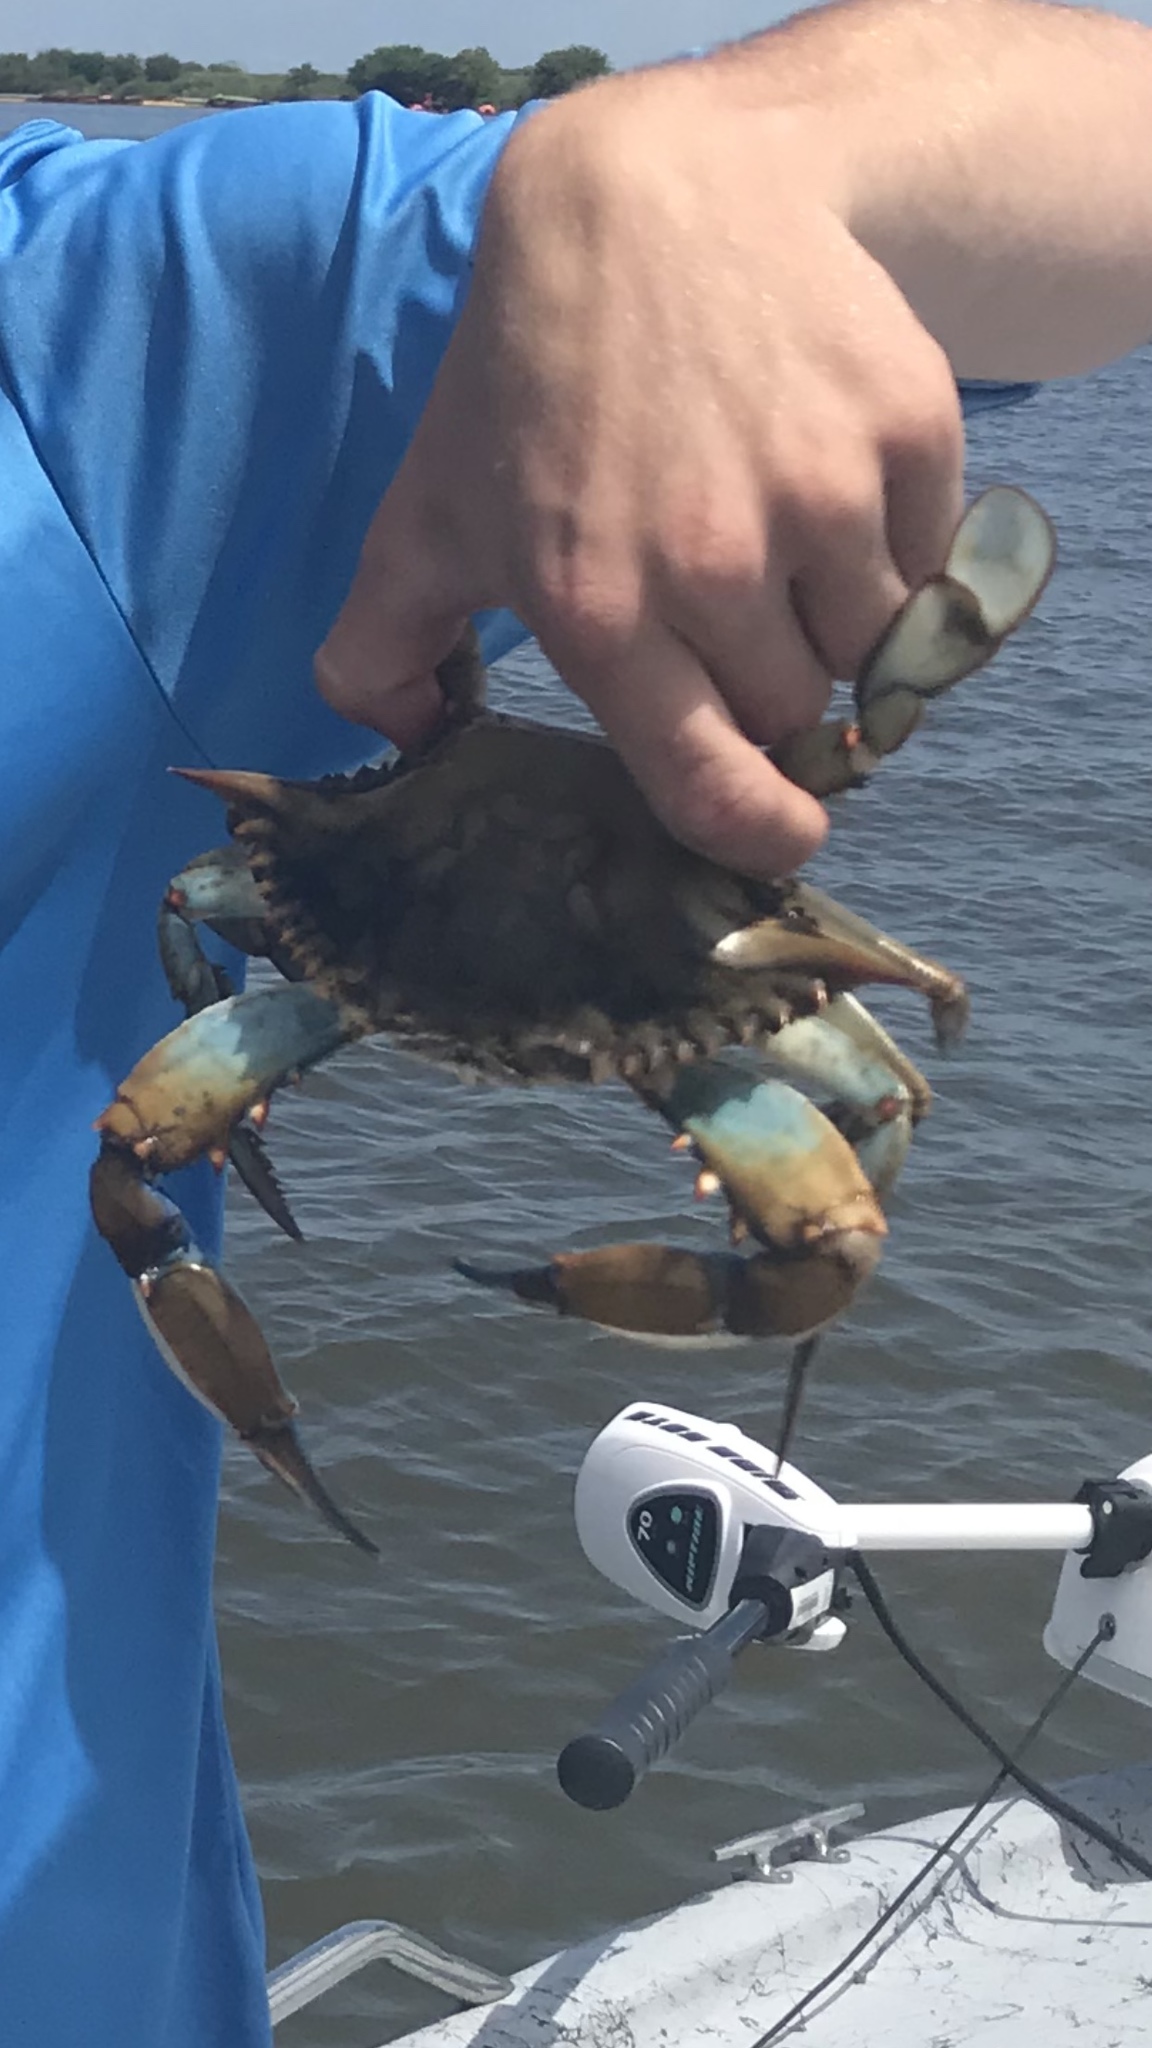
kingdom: Animalia
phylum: Arthropoda
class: Malacostraca
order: Decapoda
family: Portunidae
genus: Callinectes
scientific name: Callinectes sapidus
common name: Blue crab
